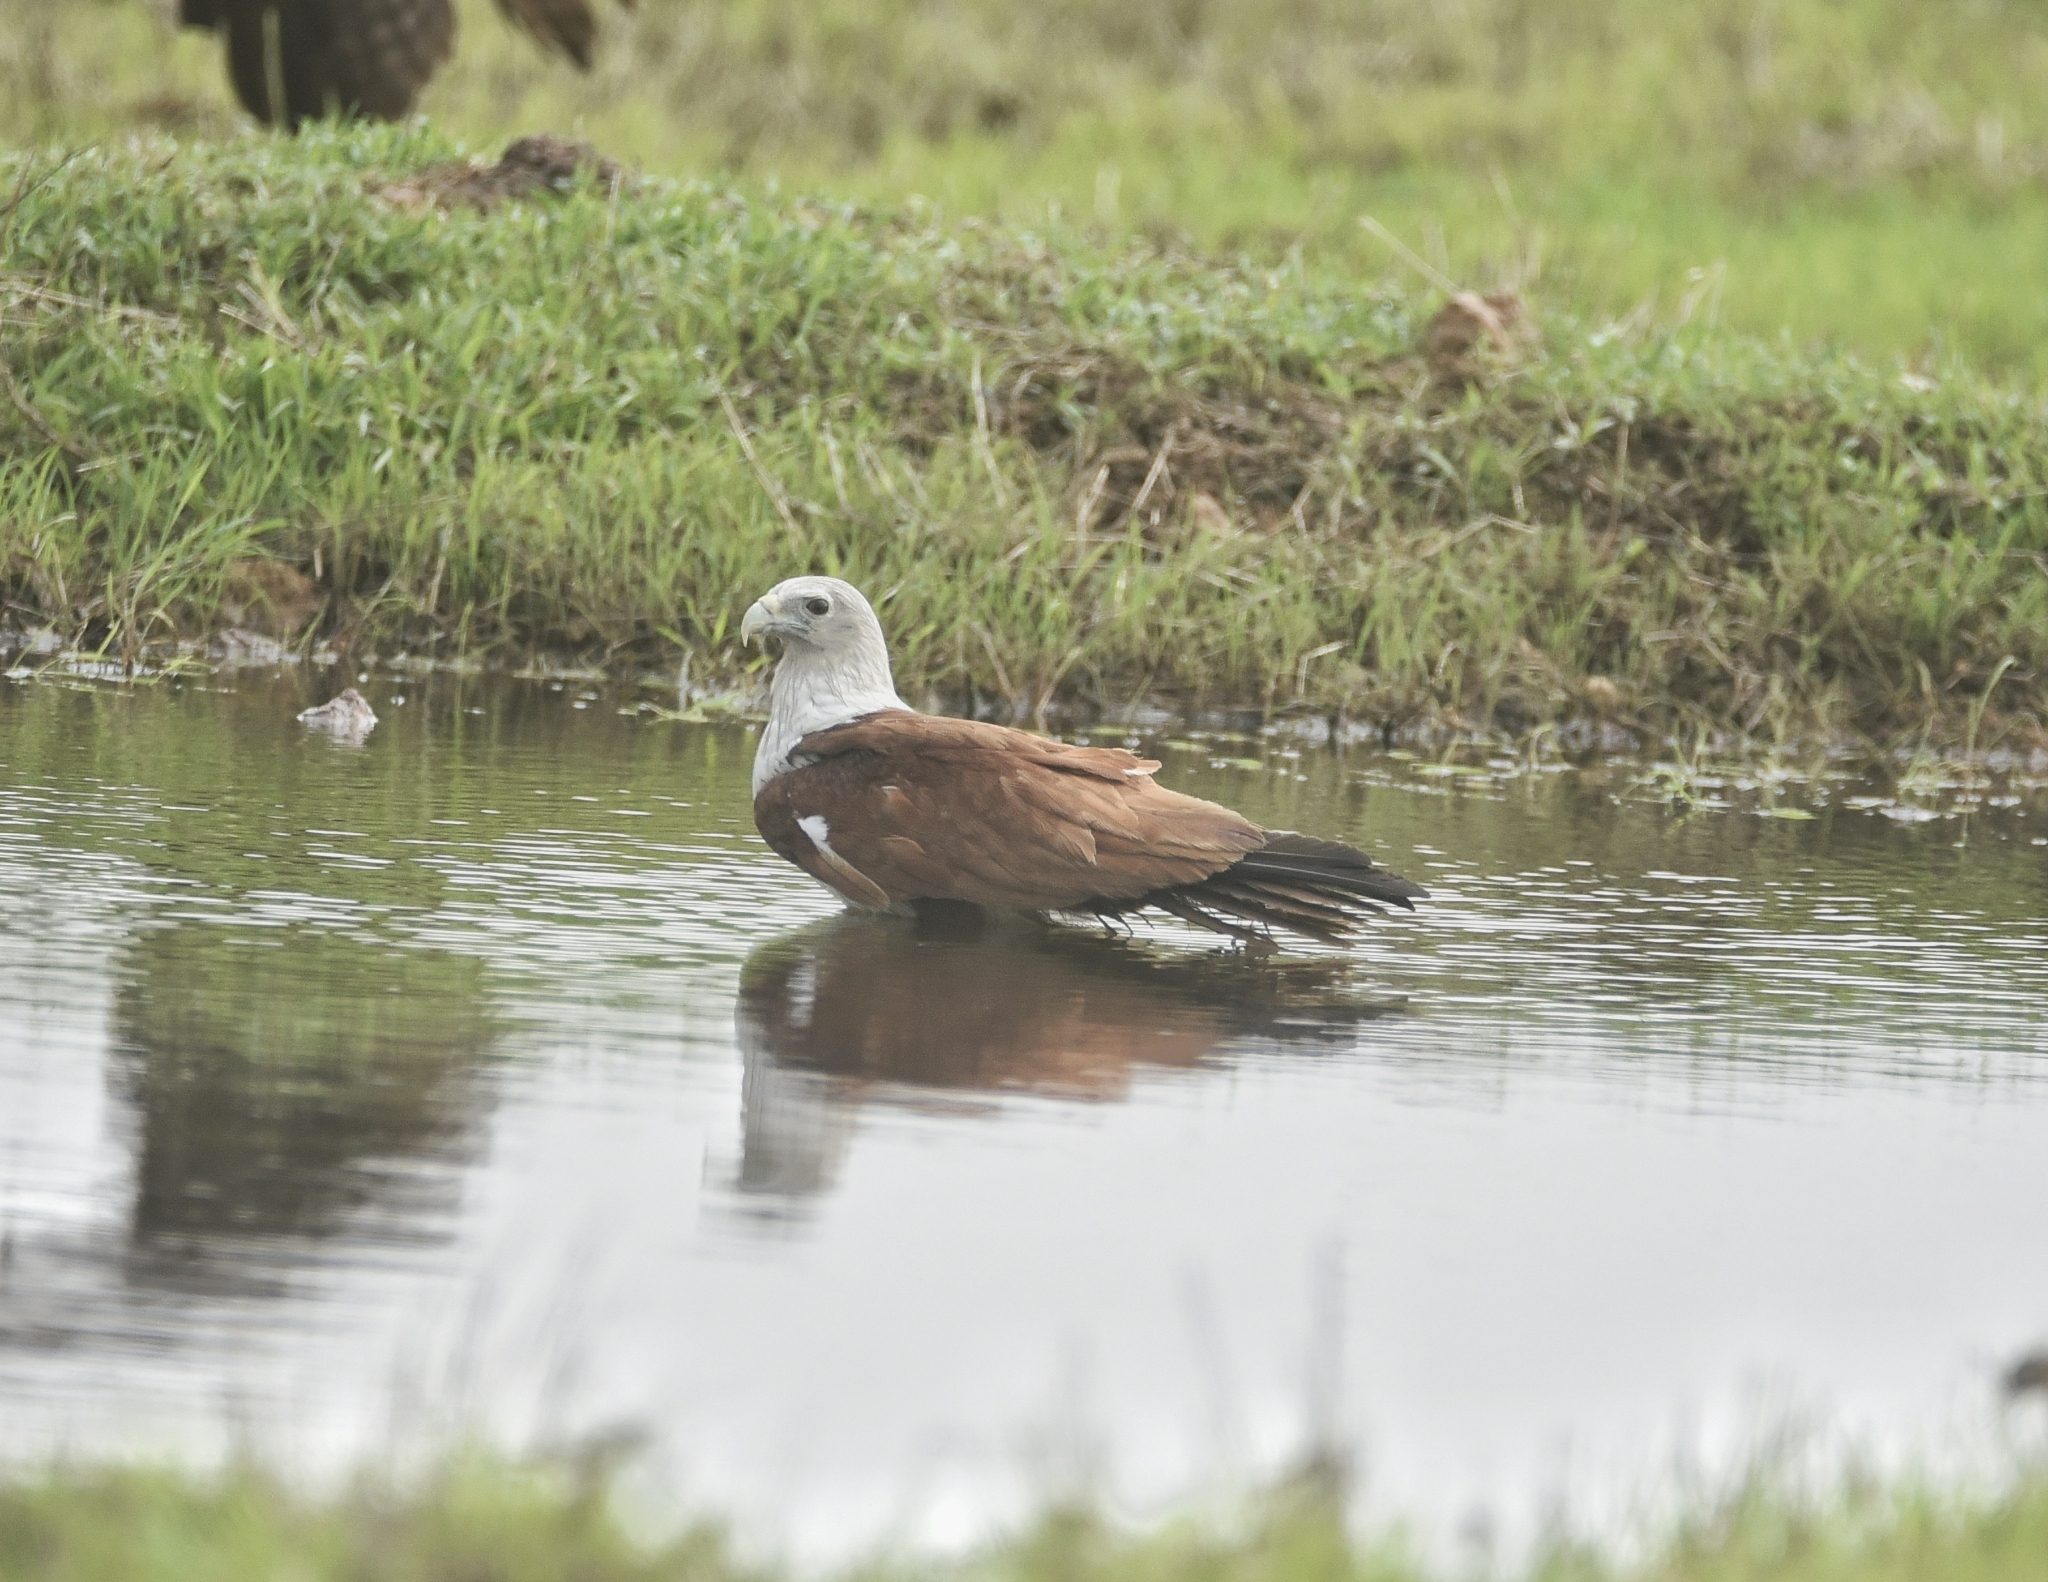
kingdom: Animalia
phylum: Chordata
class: Aves
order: Accipitriformes
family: Accipitridae
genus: Haliastur
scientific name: Haliastur indus
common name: Brahminy kite
